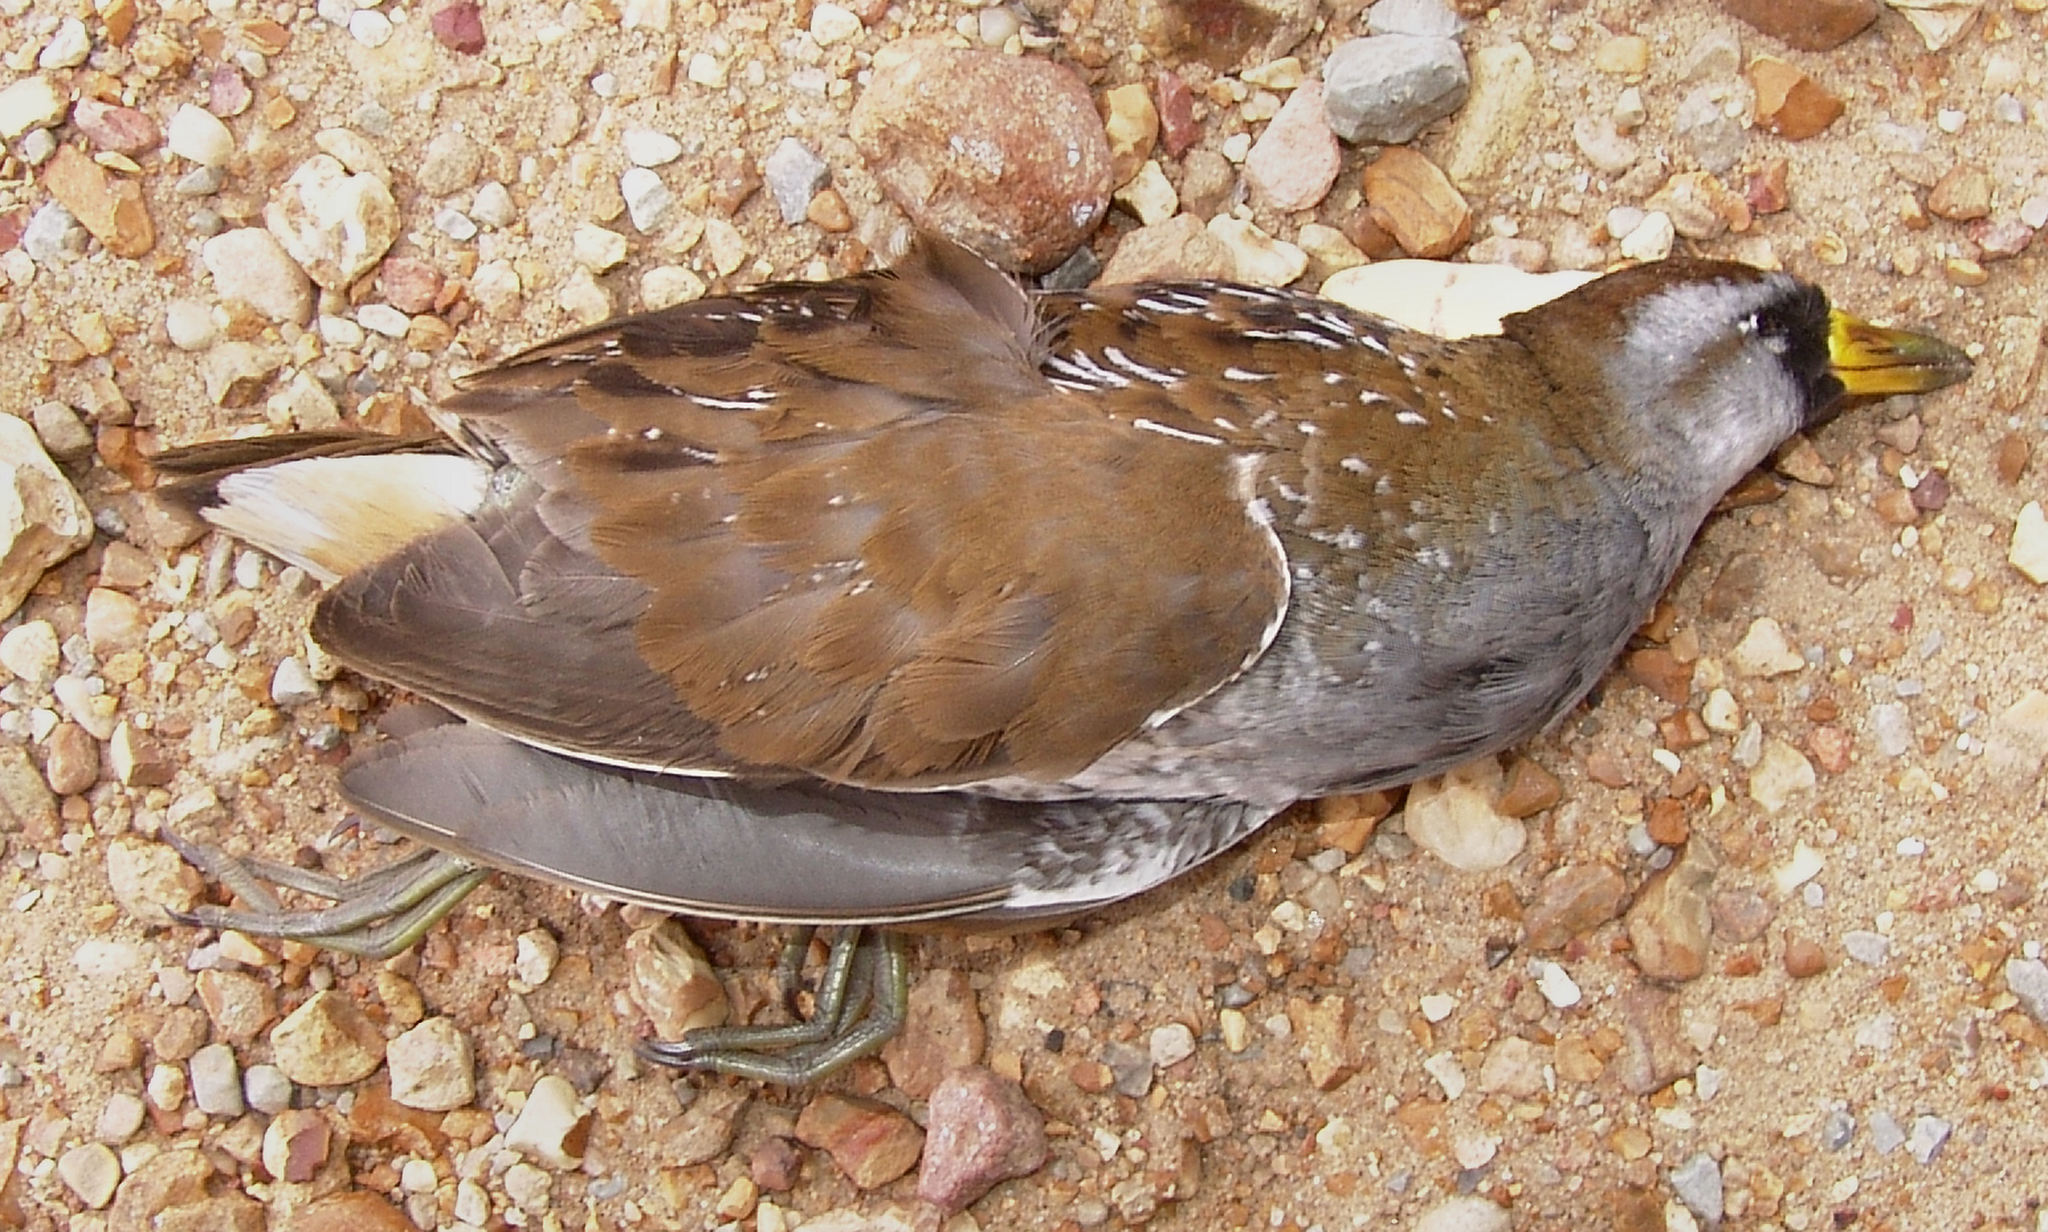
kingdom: Animalia
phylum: Chordata
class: Aves
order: Gruiformes
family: Rallidae
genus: Porzana
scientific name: Porzana carolina
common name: Sora
